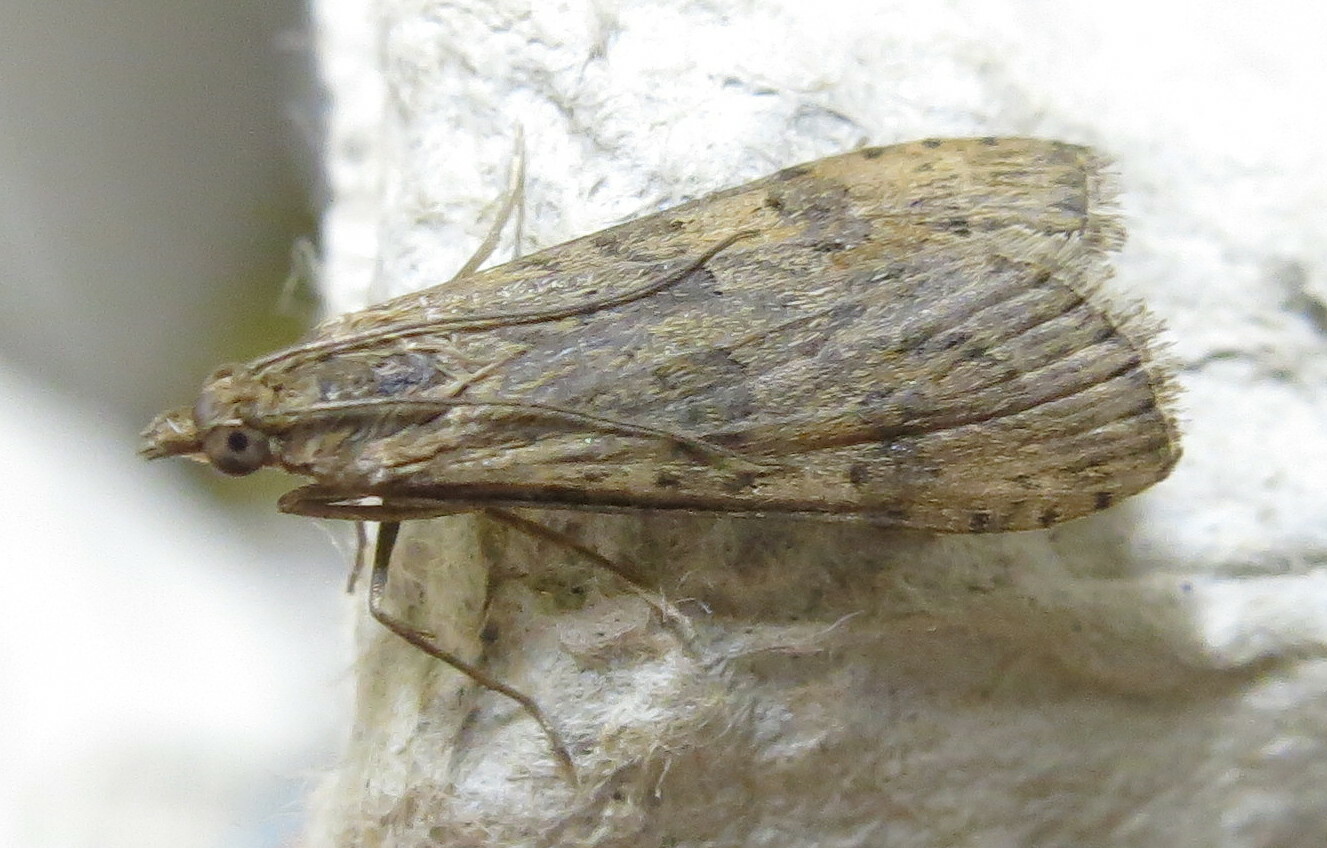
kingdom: Animalia
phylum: Arthropoda
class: Insecta
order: Lepidoptera
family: Crambidae
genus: Nomophila
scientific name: Nomophila noctuella
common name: Rush veneer
